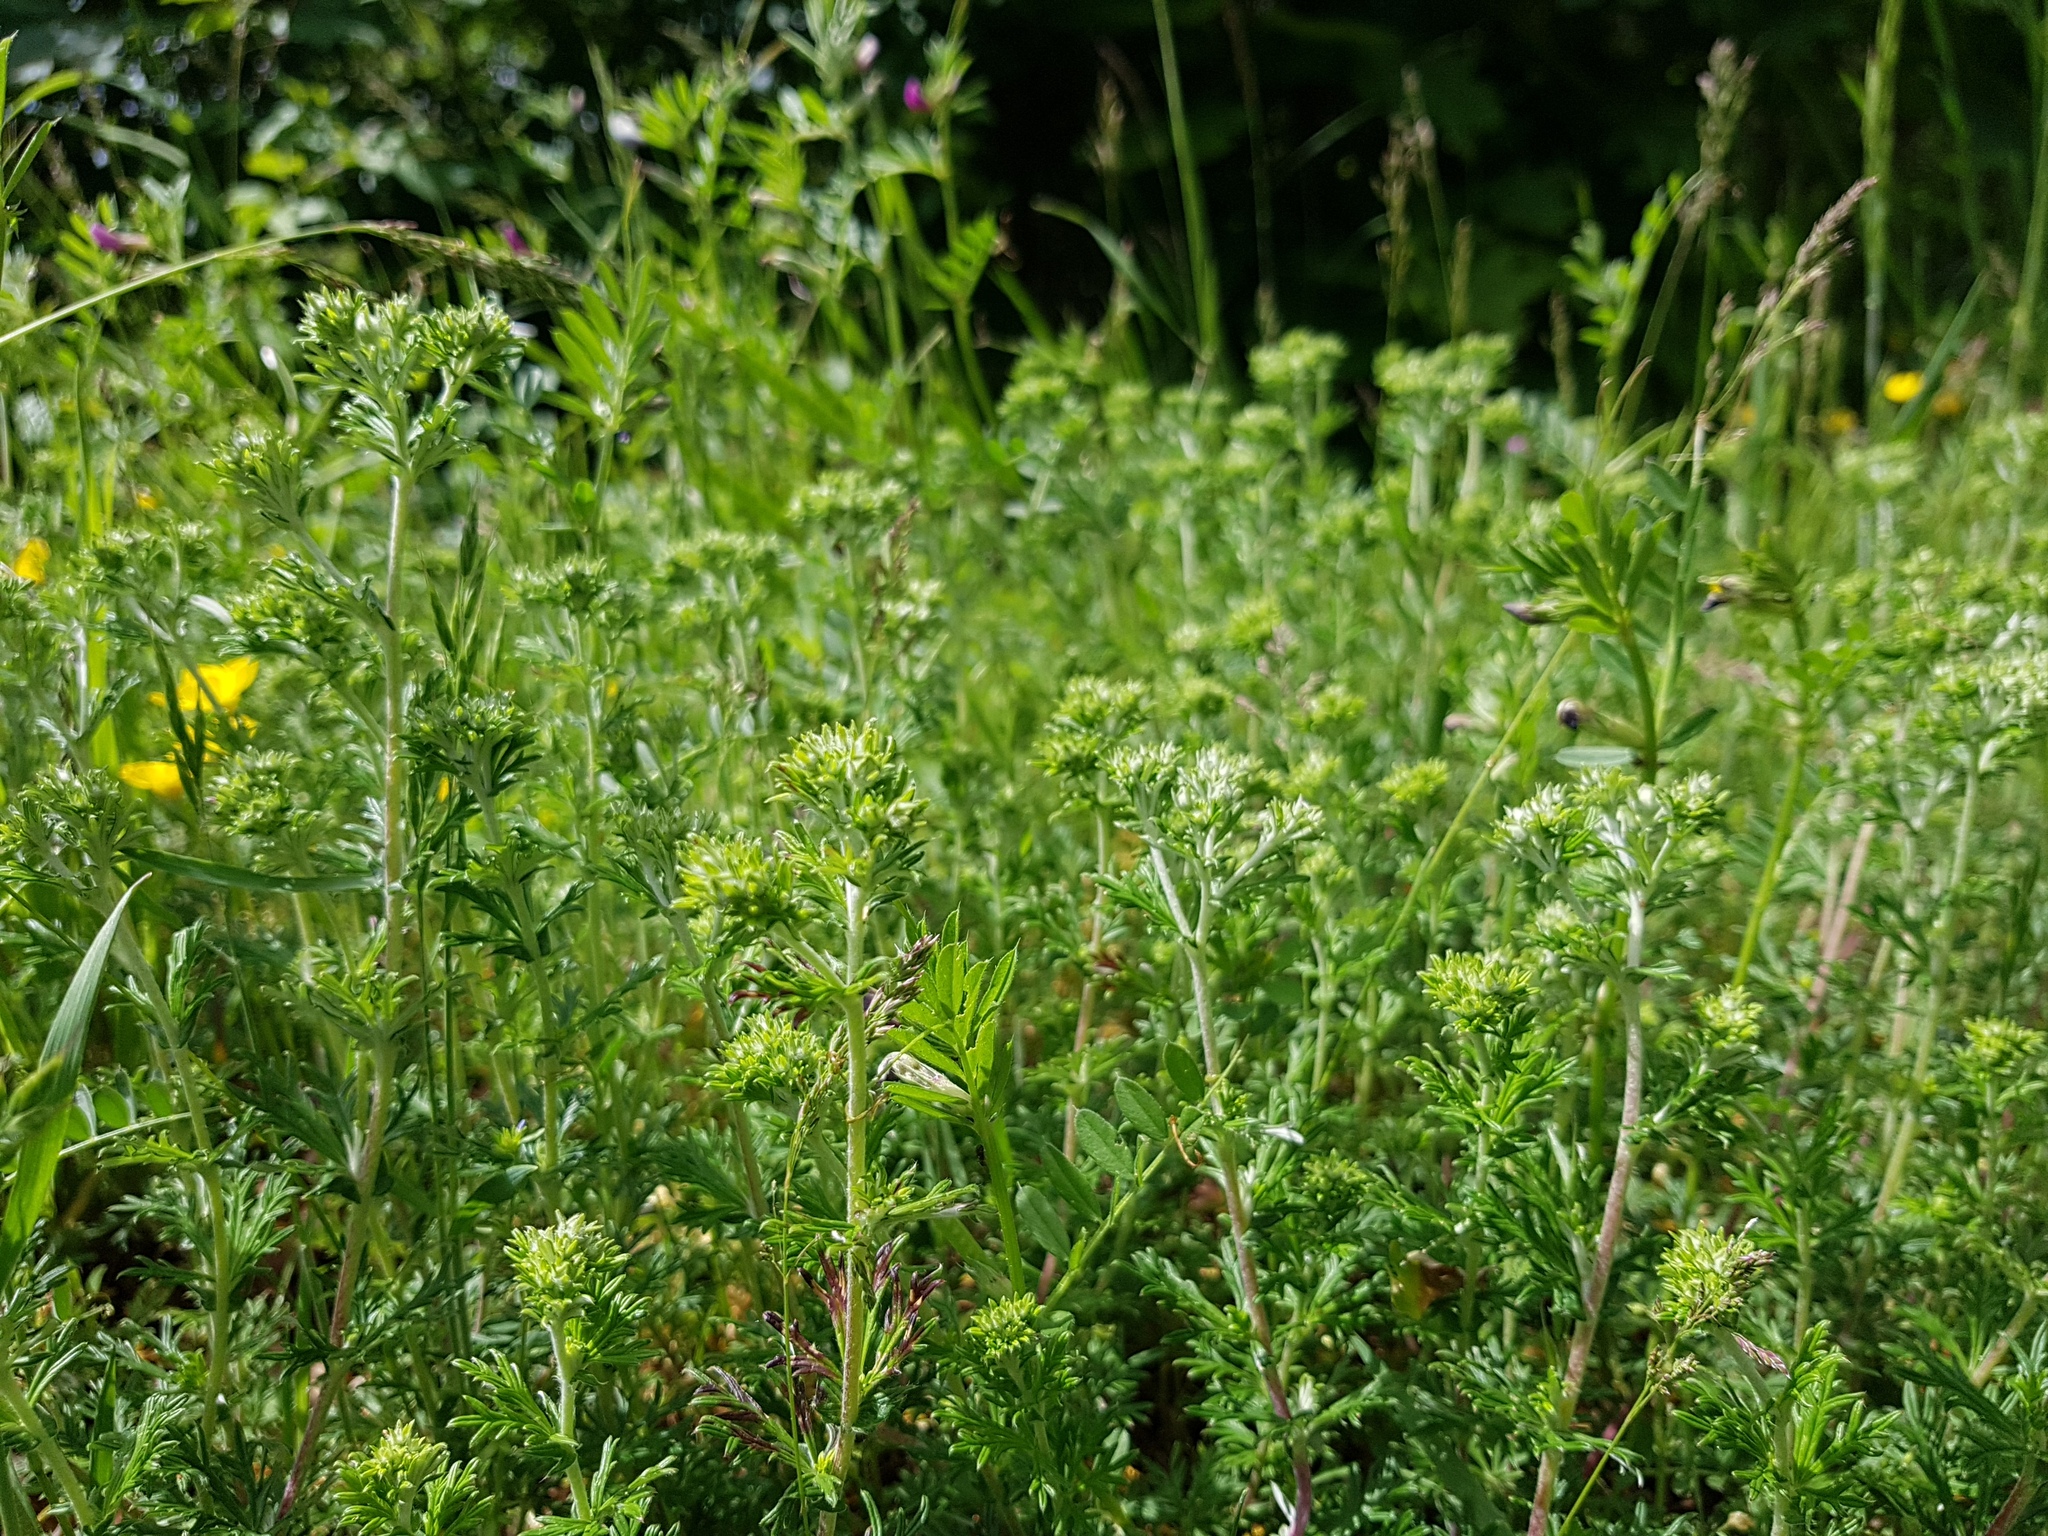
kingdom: Plantae
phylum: Tracheophyta
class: Magnoliopsida
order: Rosales
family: Rosaceae
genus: Potentilla
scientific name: Potentilla argentea
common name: Hoary cinquefoil
